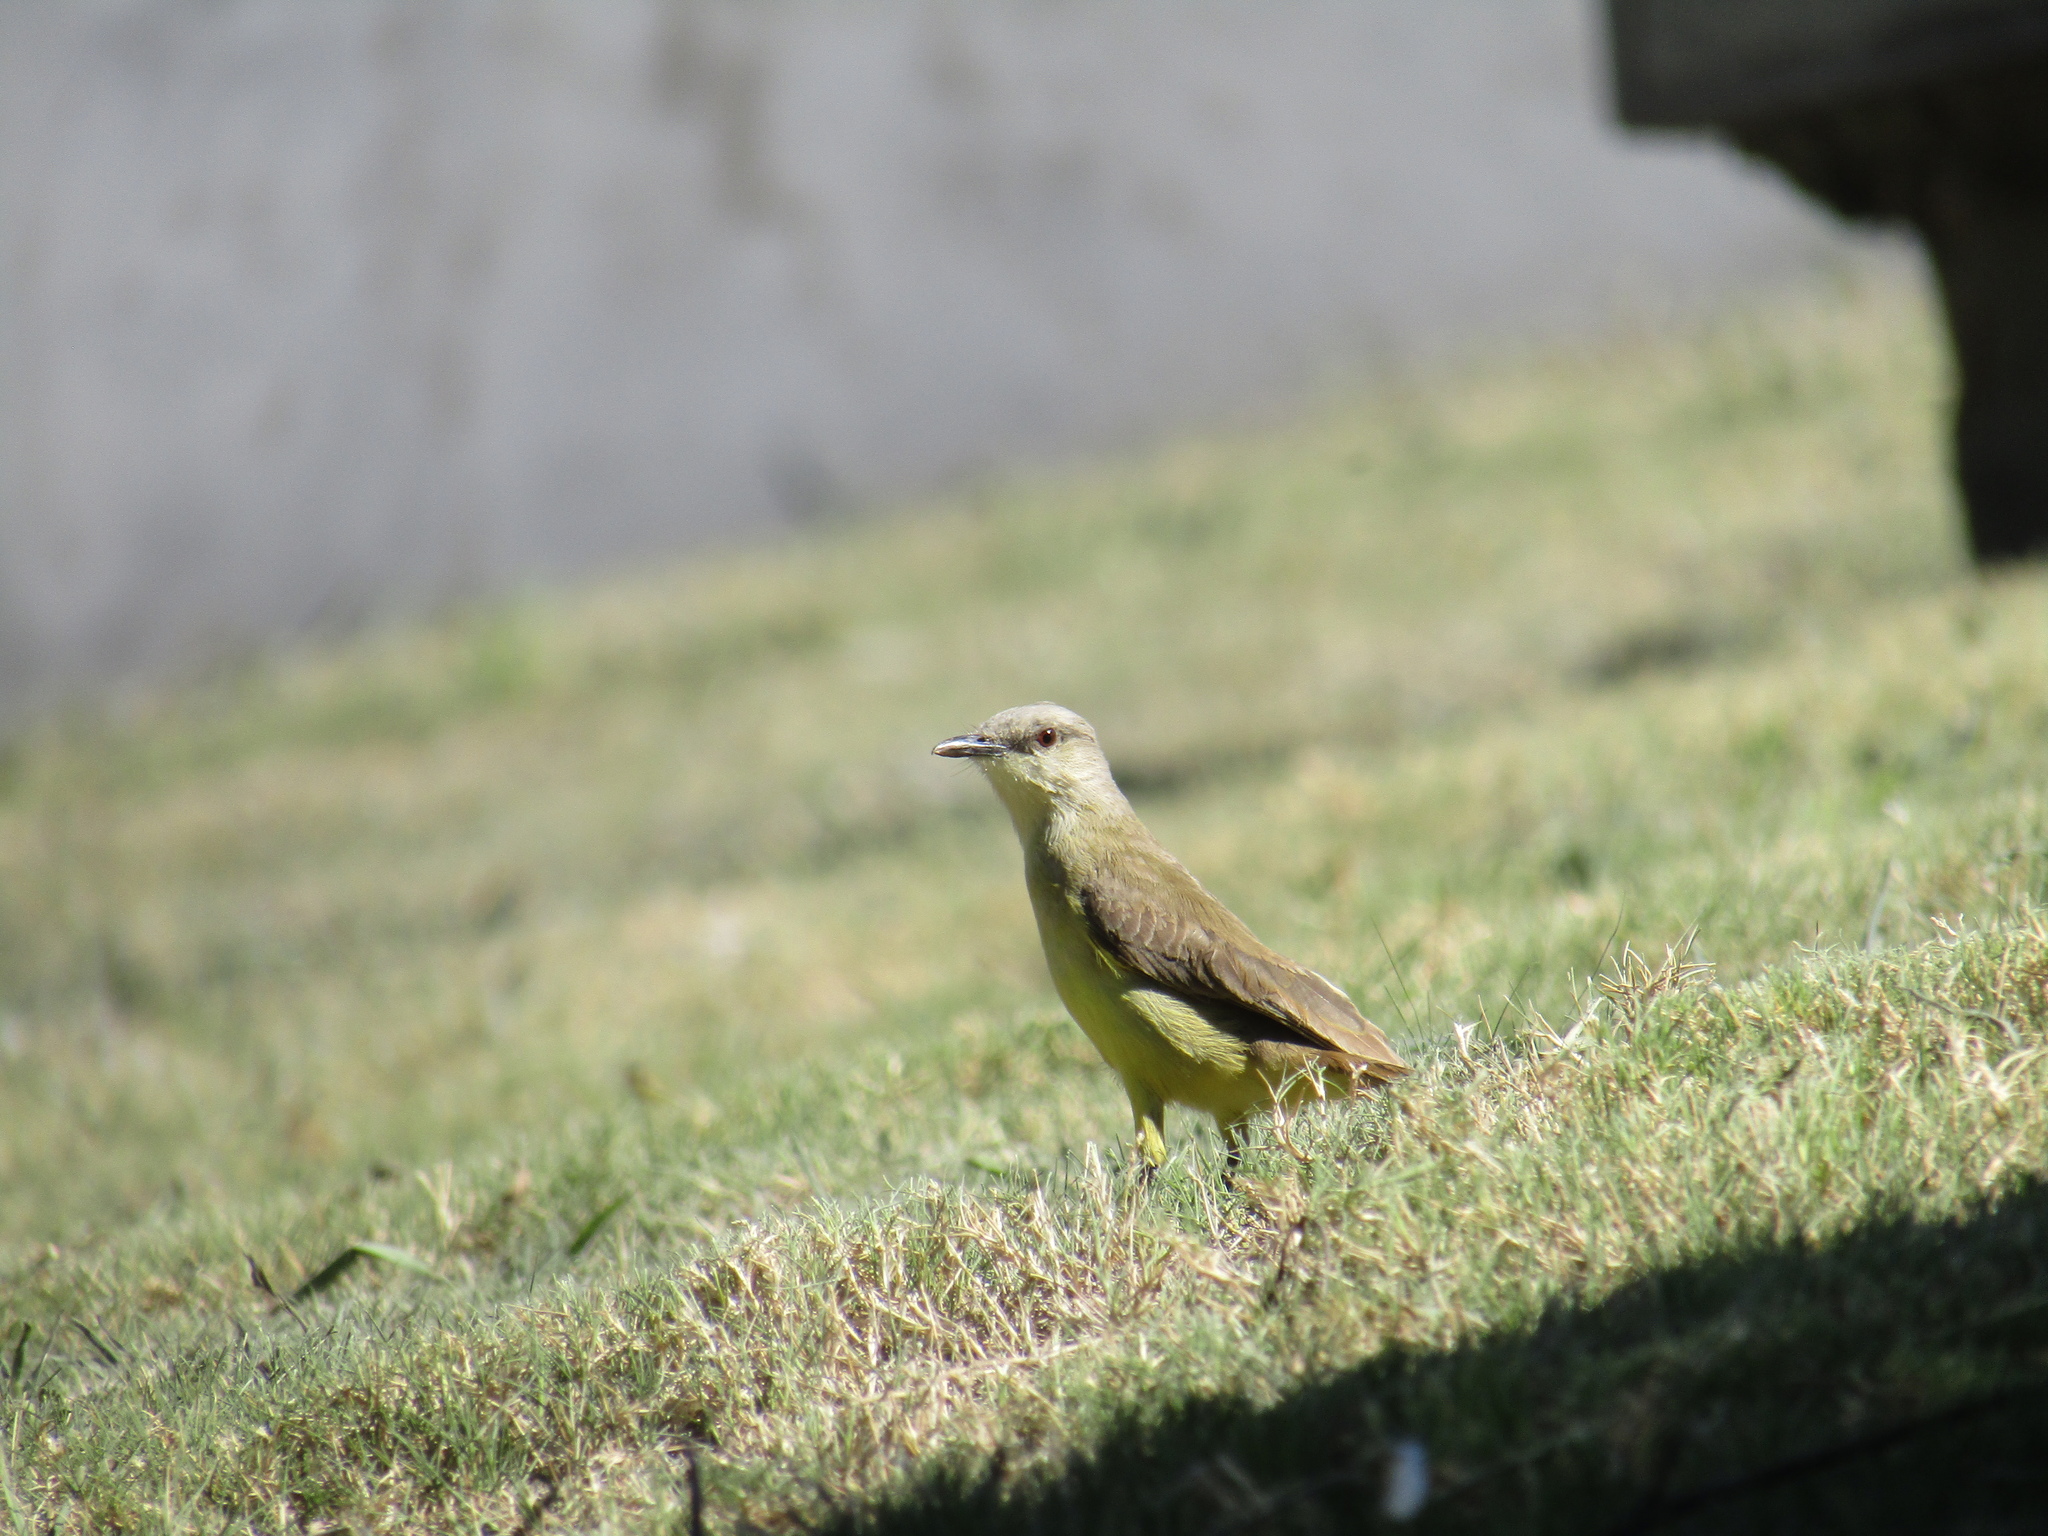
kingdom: Animalia
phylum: Chordata
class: Aves
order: Passeriformes
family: Tyrannidae
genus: Machetornis
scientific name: Machetornis rixosa
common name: Cattle tyrant
